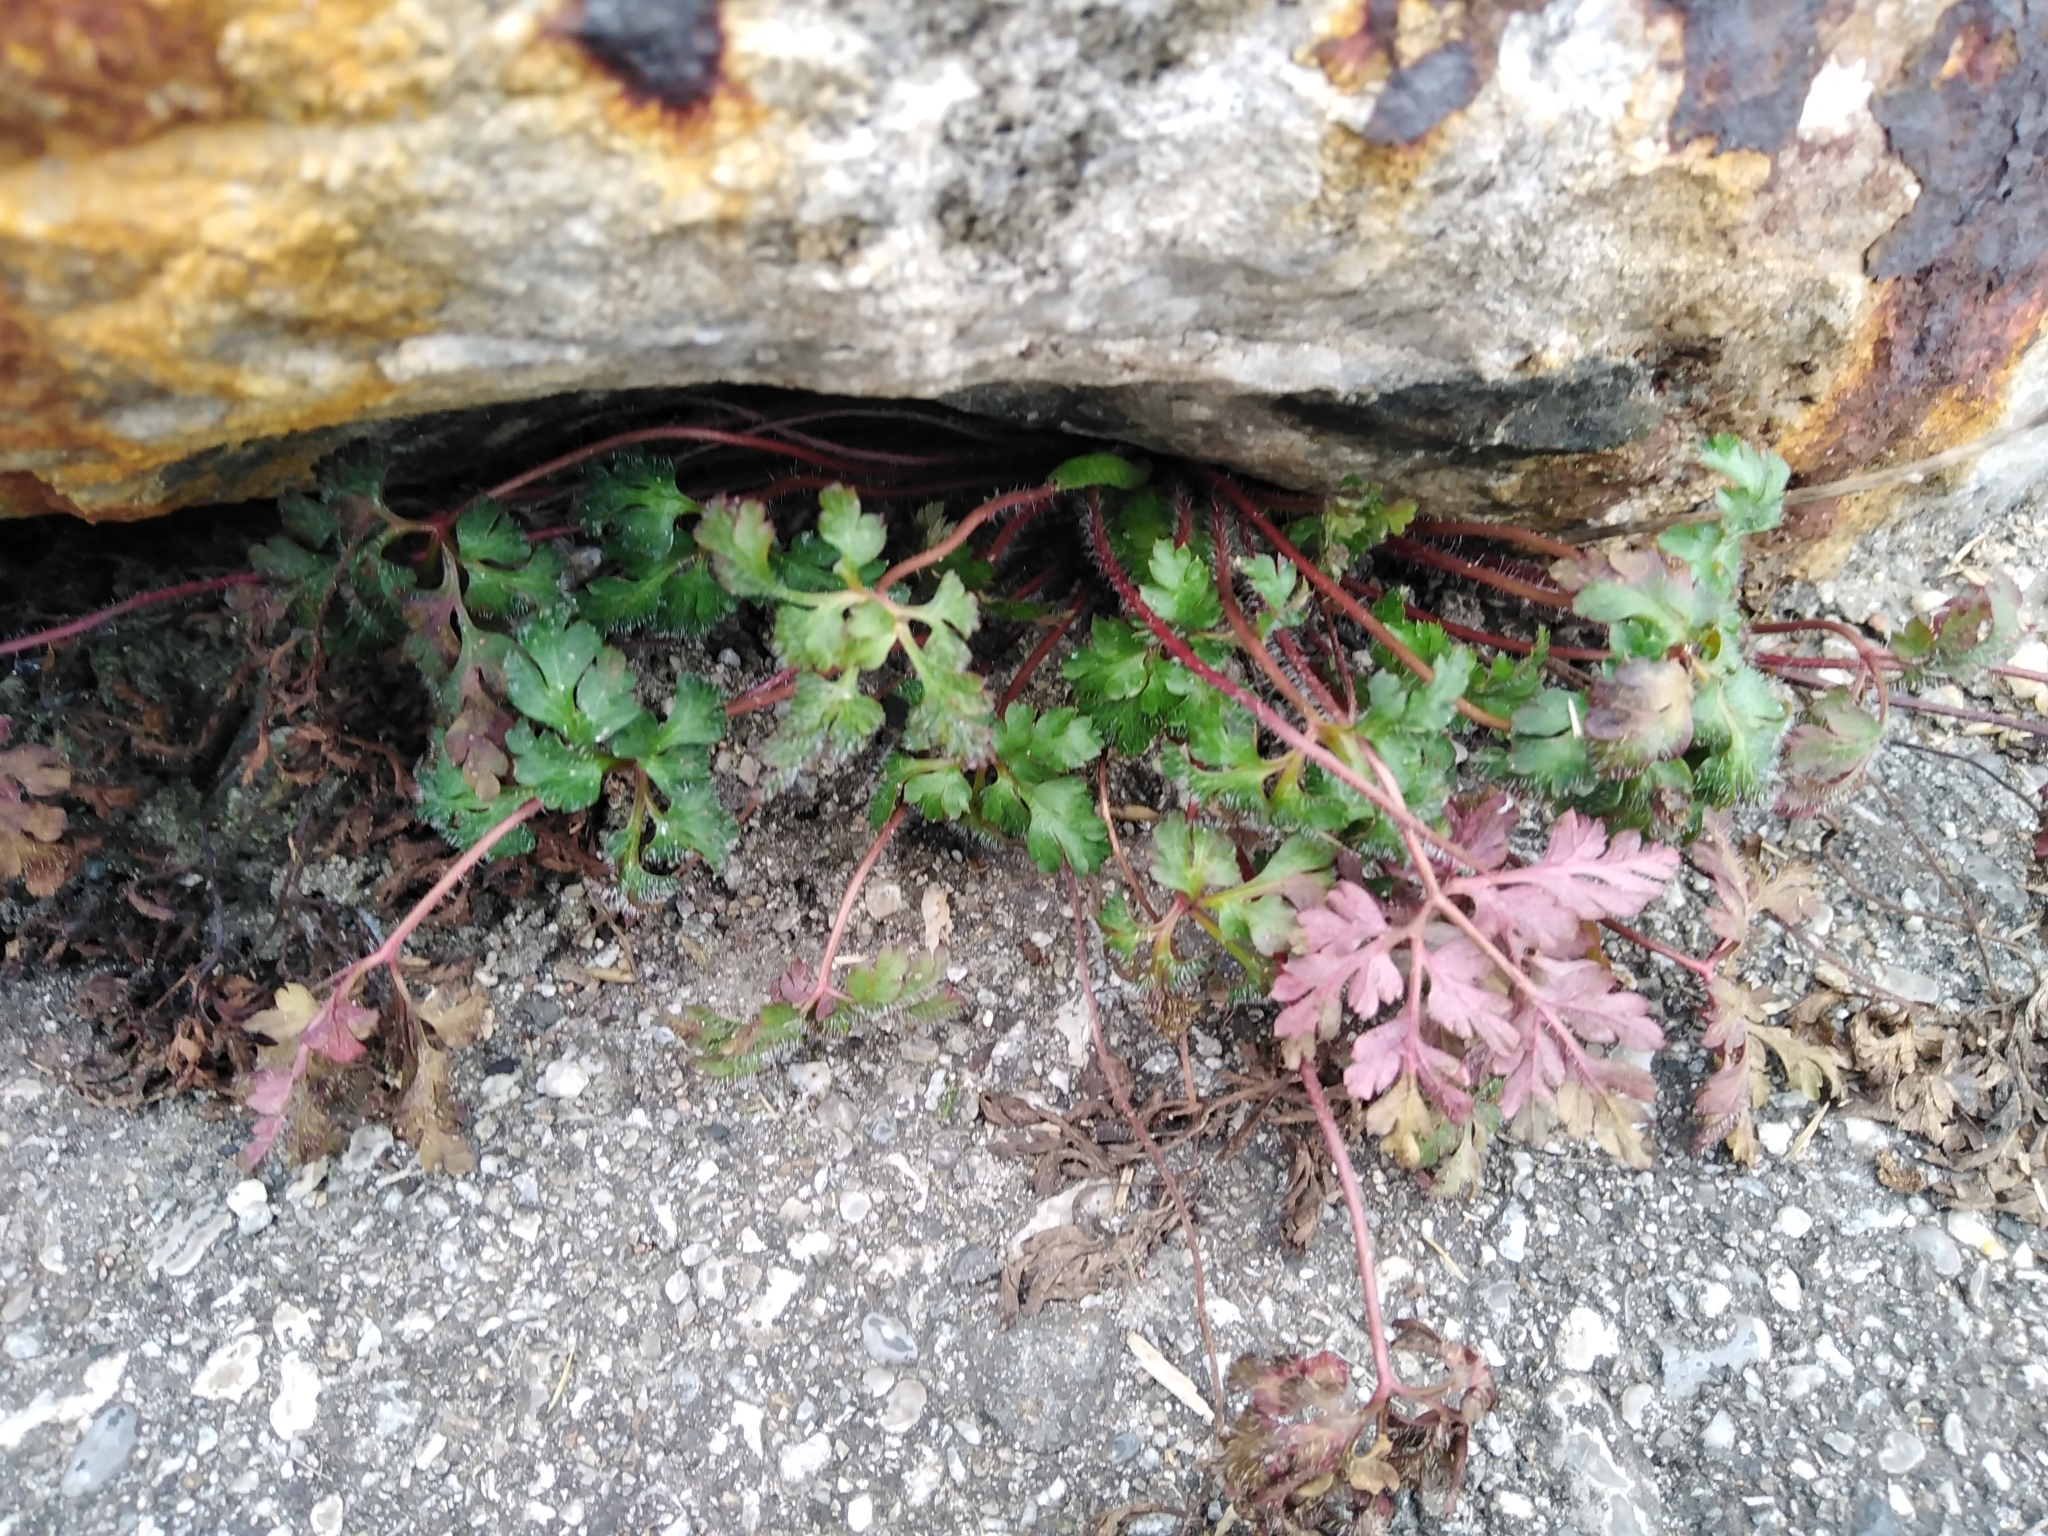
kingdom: Plantae
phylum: Tracheophyta
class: Magnoliopsida
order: Geraniales
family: Geraniaceae
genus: Geranium
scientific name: Geranium robertianum
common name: Herb-robert
